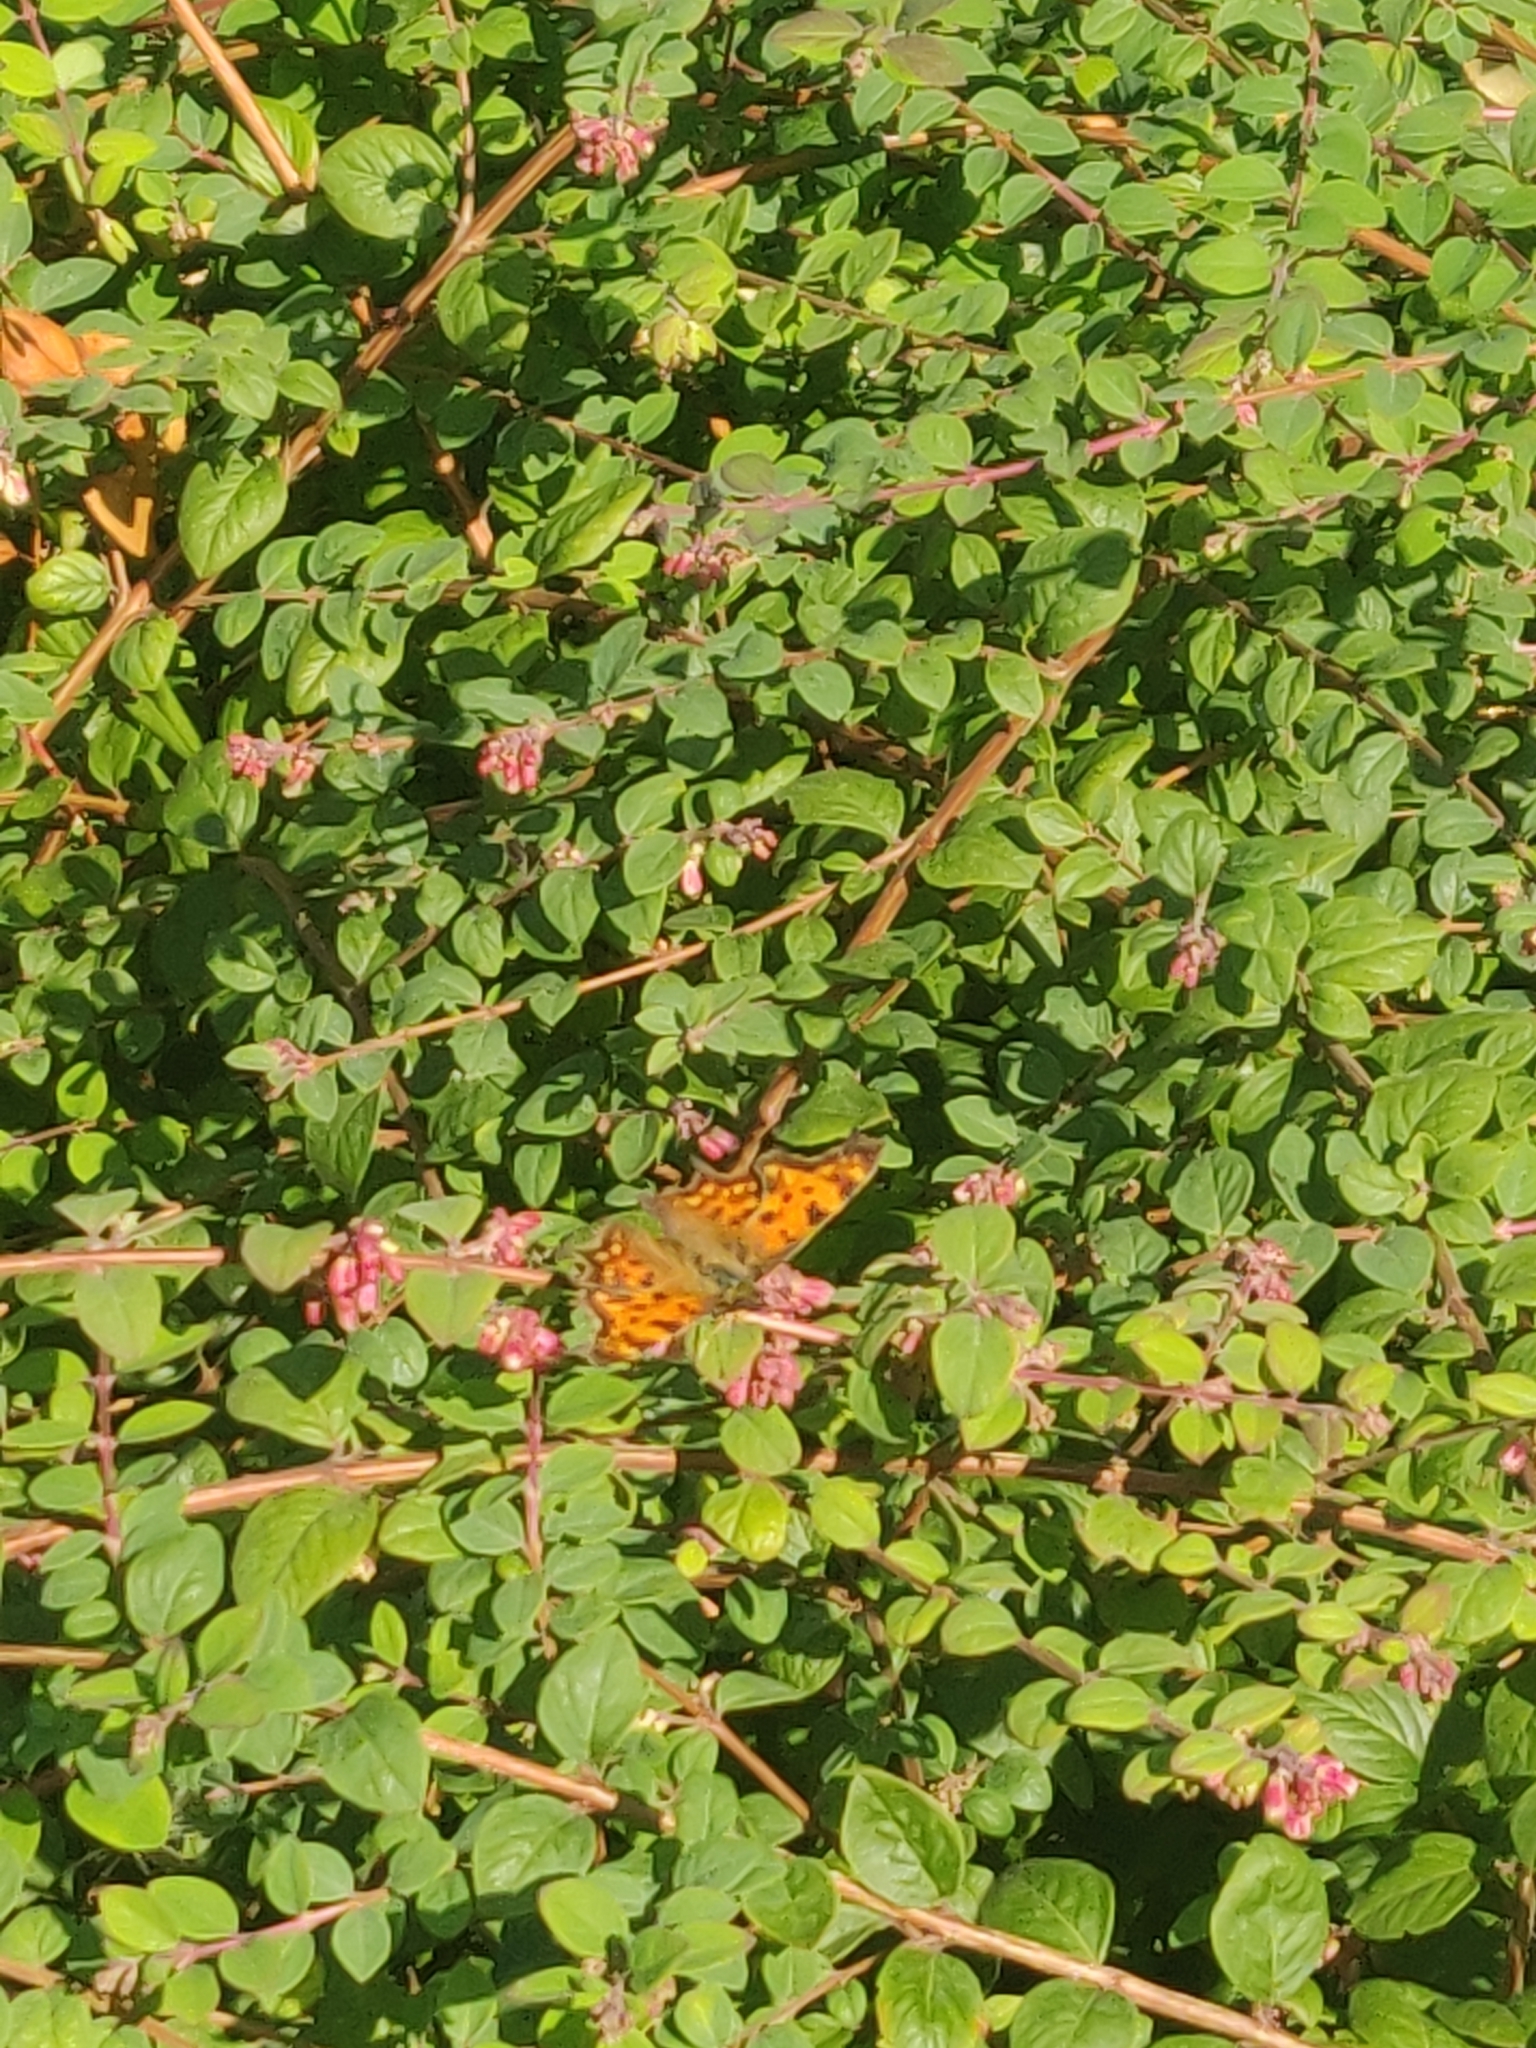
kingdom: Animalia
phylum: Arthropoda
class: Insecta
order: Lepidoptera
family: Nymphalidae
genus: Polygonia
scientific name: Polygonia c-album
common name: Comma
